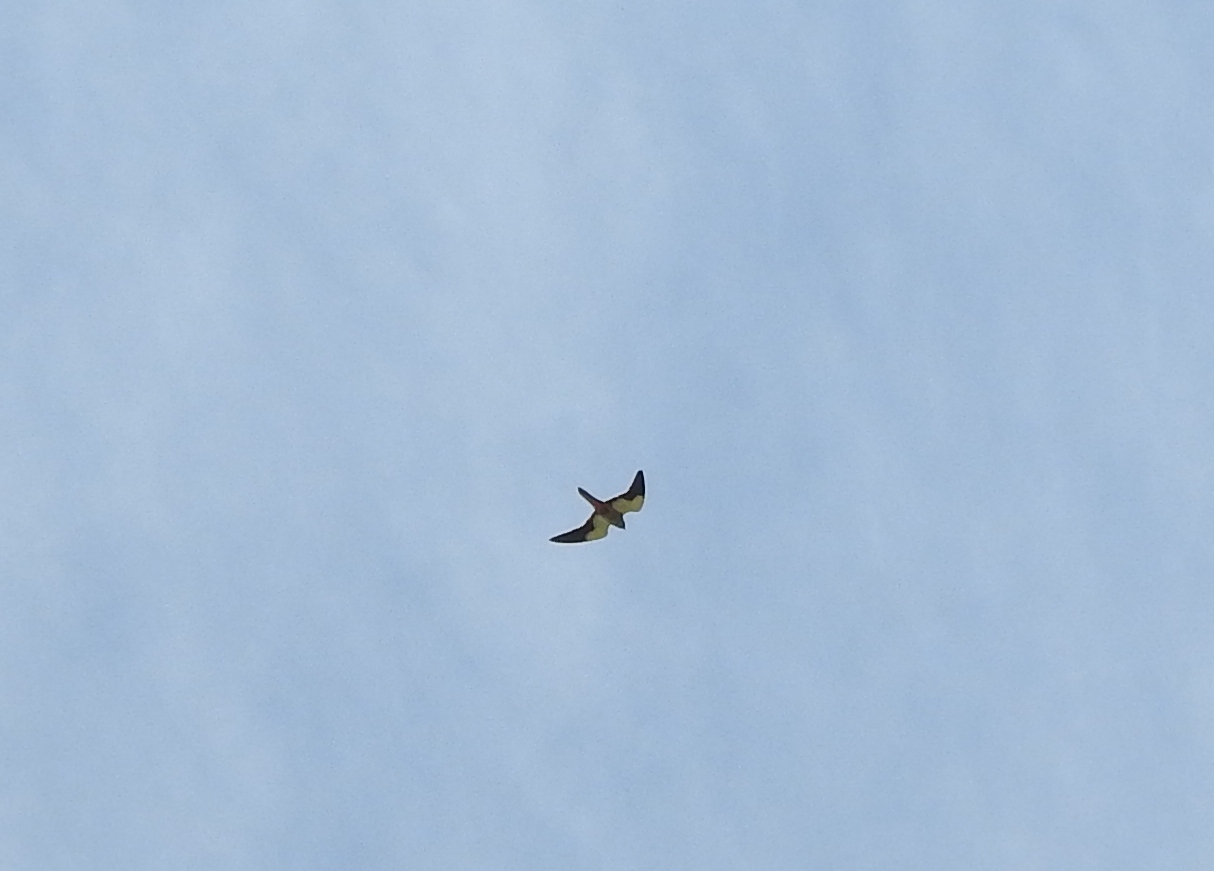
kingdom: Animalia
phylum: Chordata
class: Aves
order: Falconiformes
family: Falconidae
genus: Falco
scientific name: Falco amurensis
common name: Amur falcon
